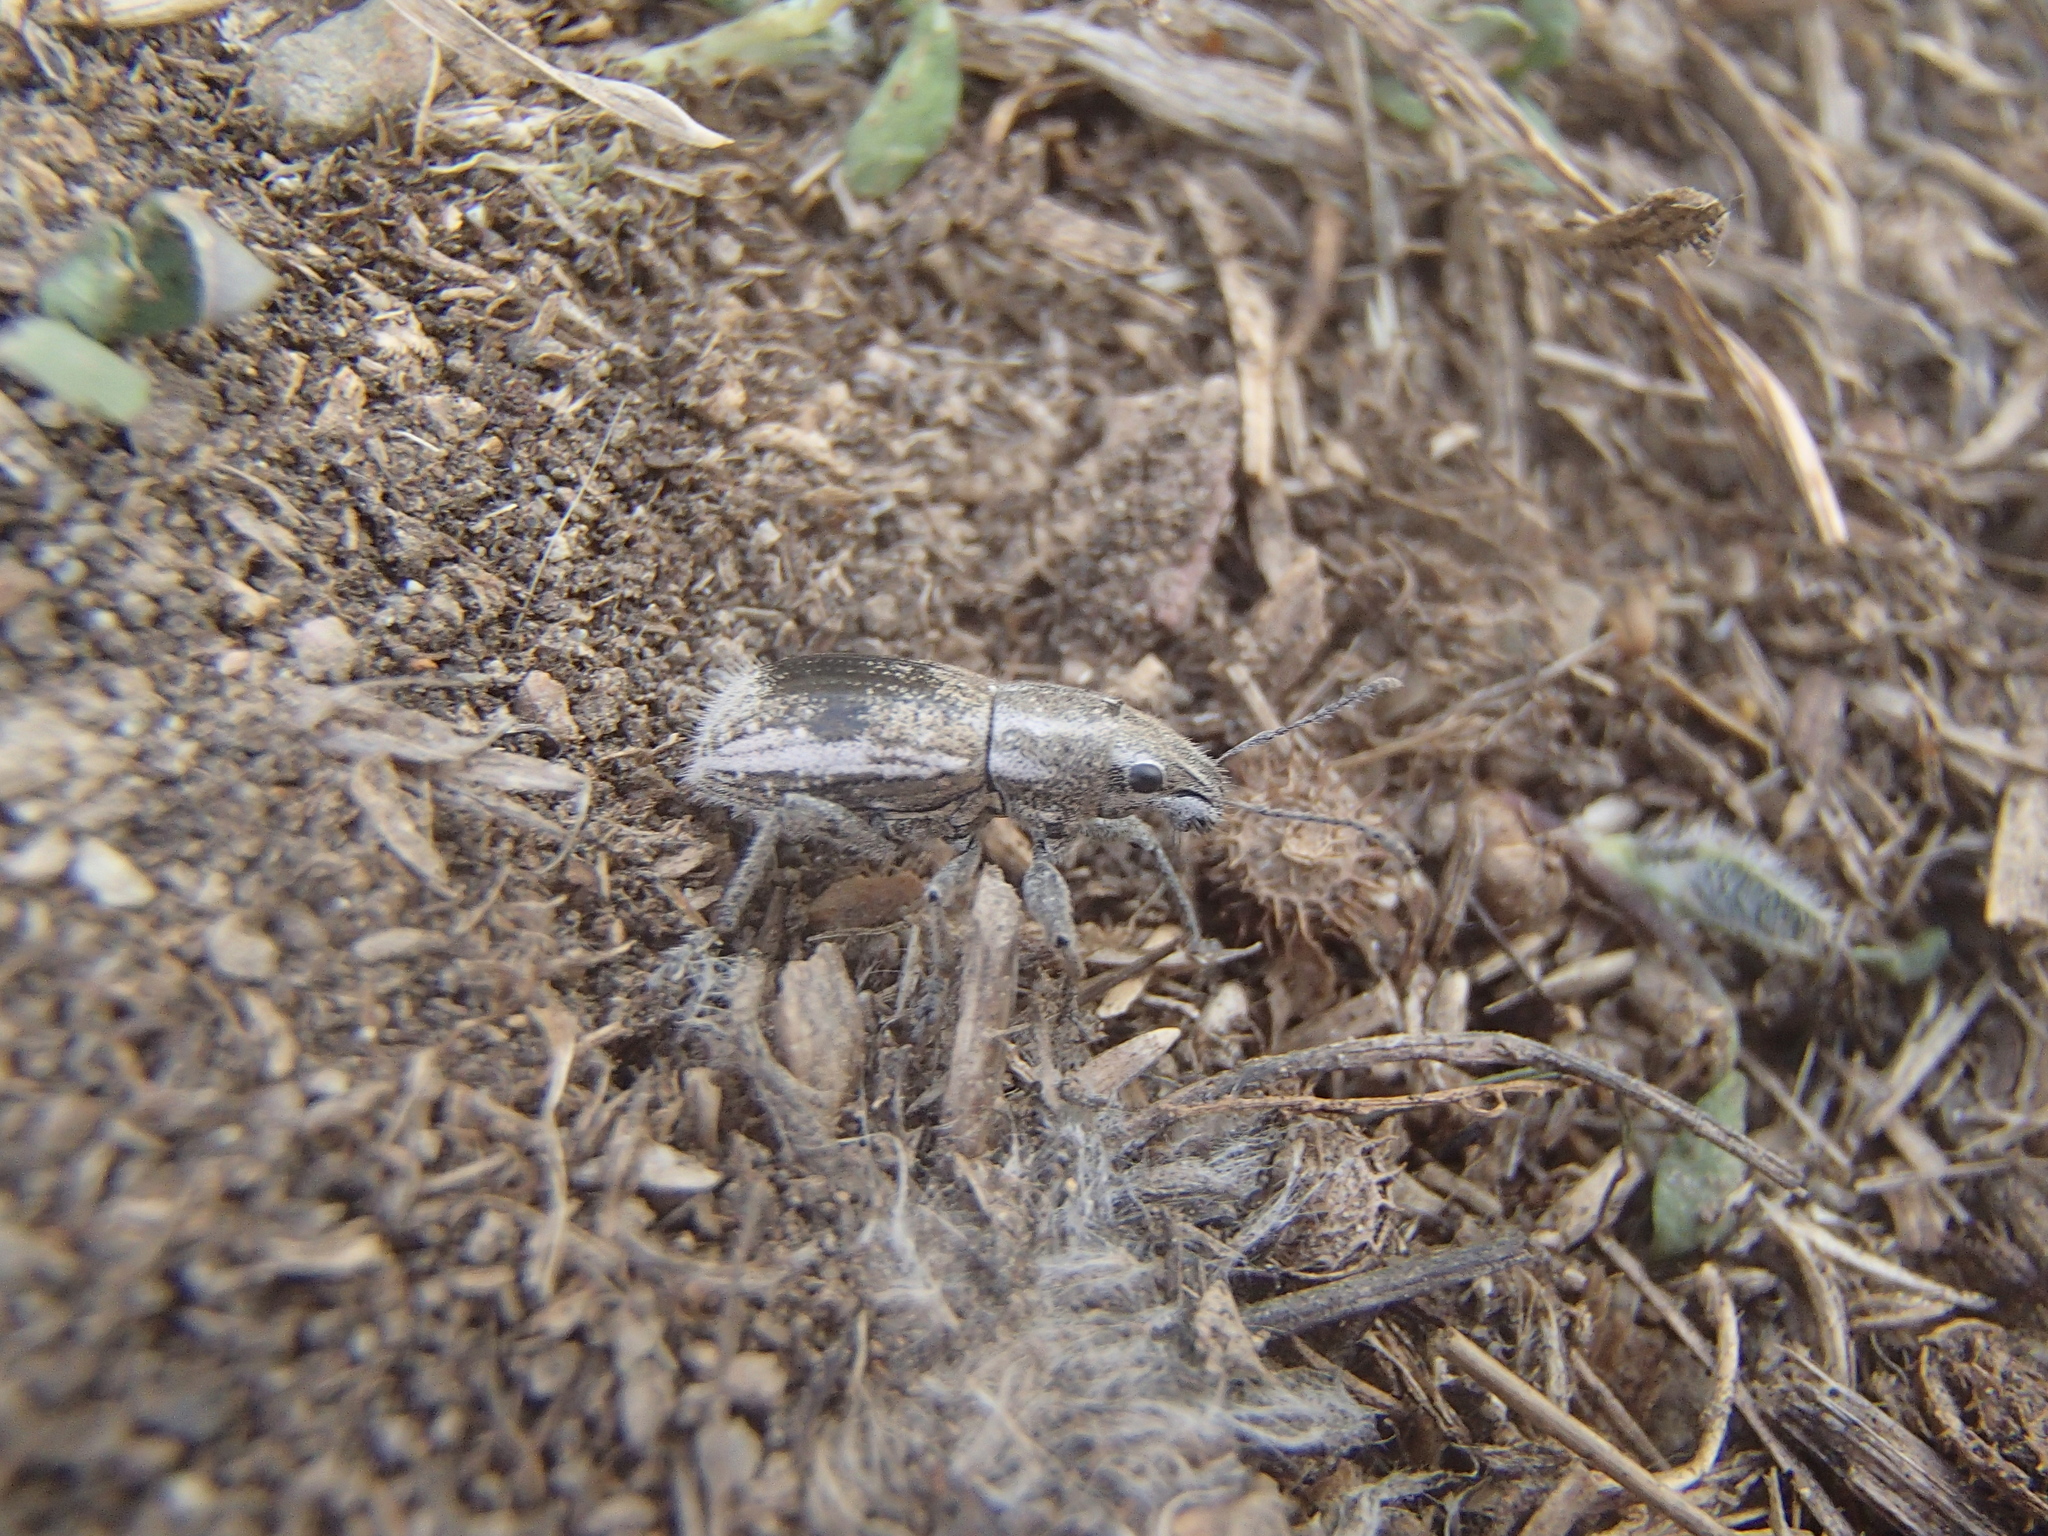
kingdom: Animalia
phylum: Arthropoda
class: Insecta
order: Coleoptera
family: Curculionidae
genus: Naupactus
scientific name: Naupactus leucoloma
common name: Whitefringed beetle
